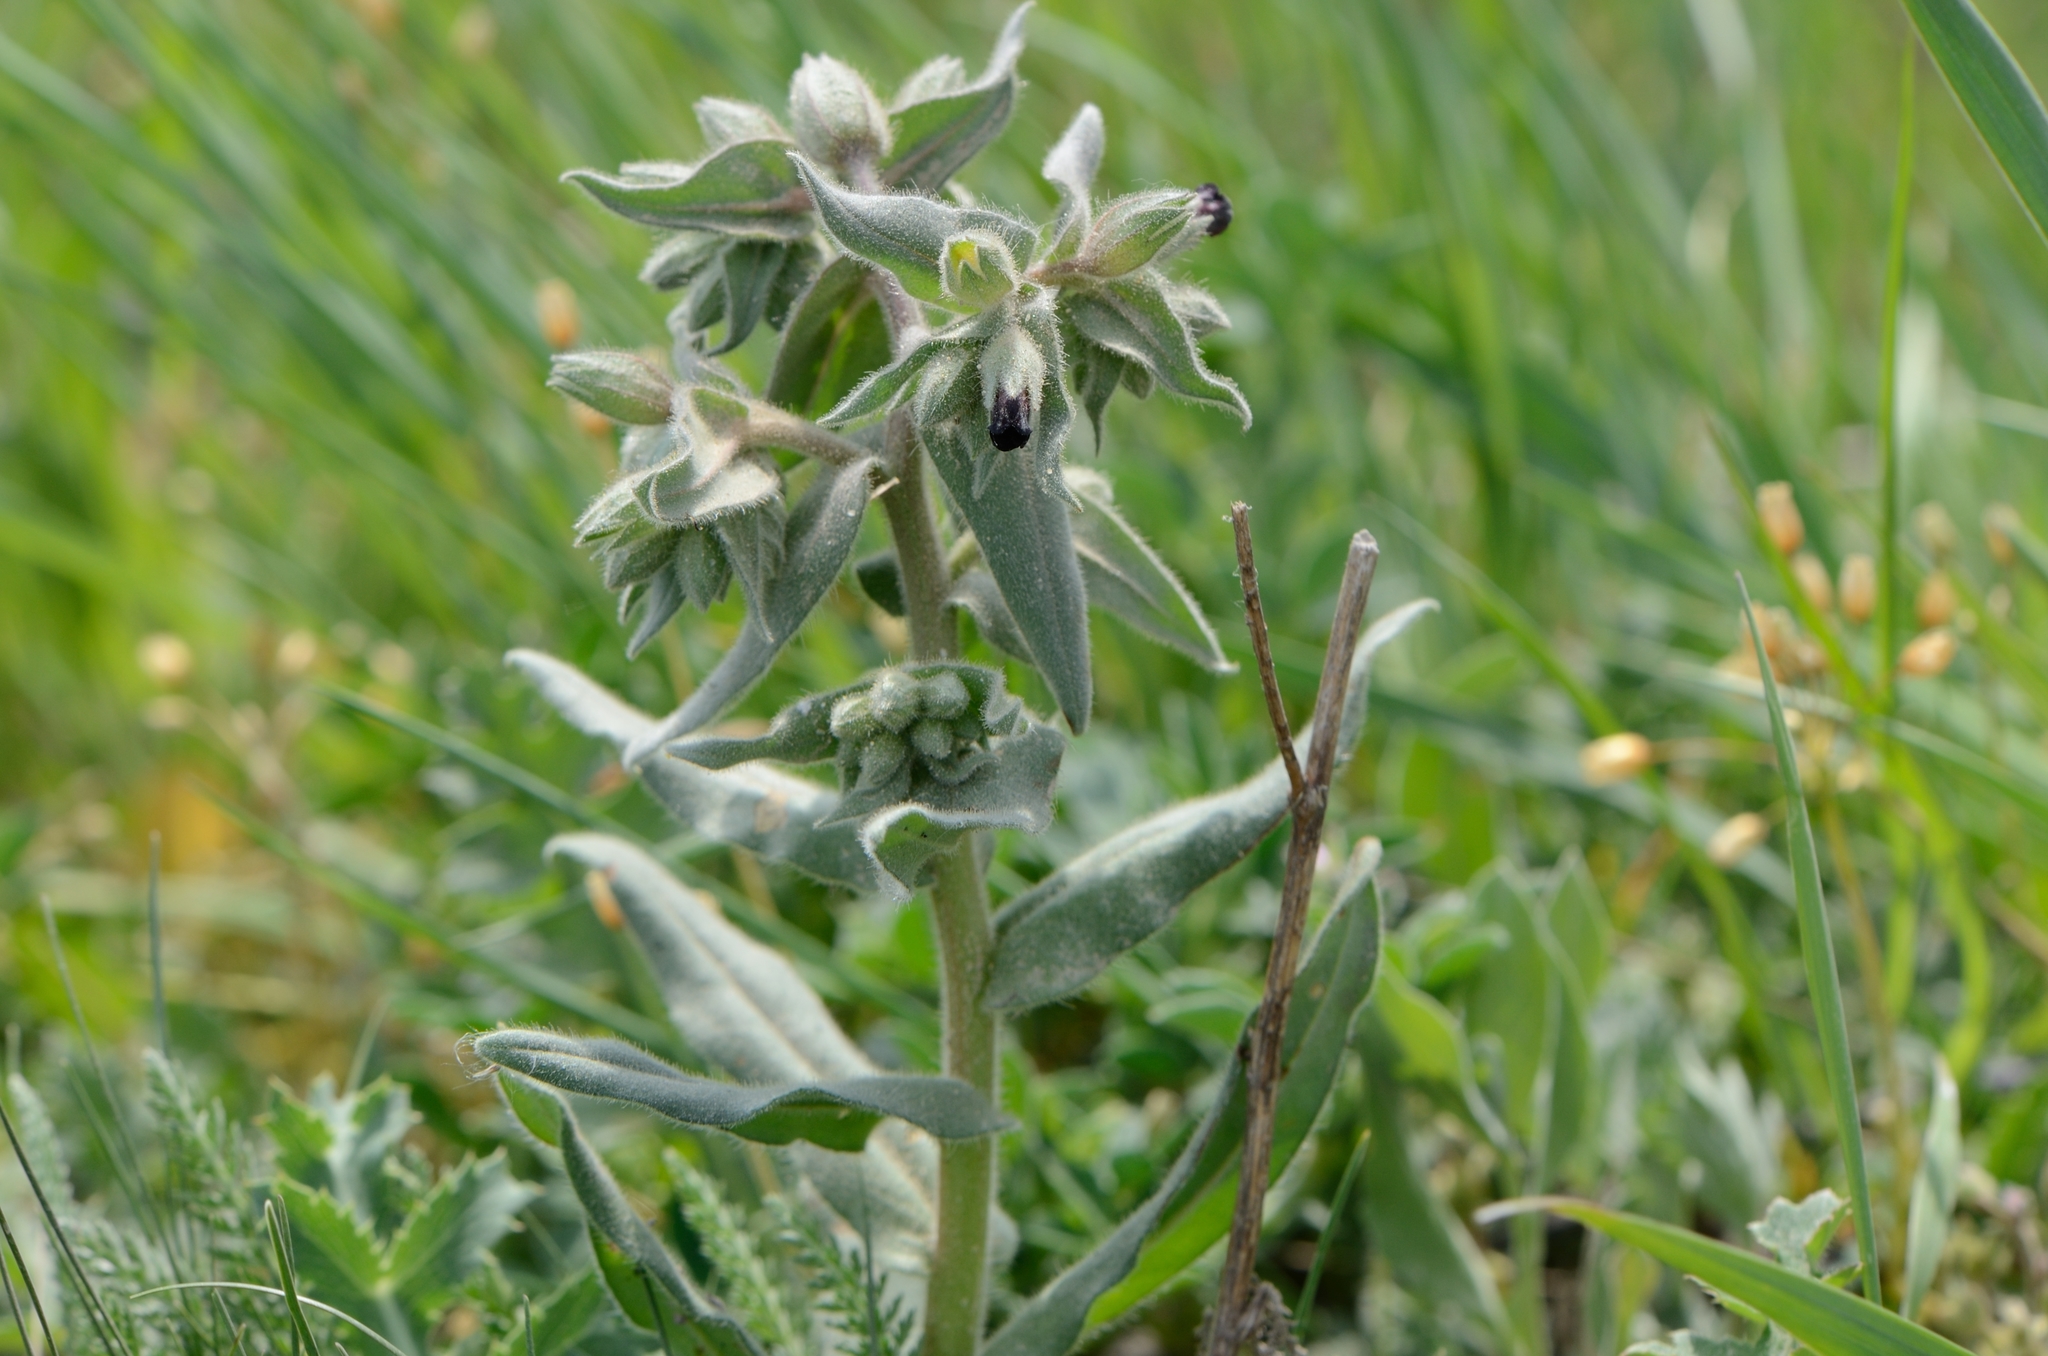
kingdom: Plantae
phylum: Tracheophyta
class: Magnoliopsida
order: Boraginales
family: Boraginaceae
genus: Nonea
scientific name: Nonea pulla
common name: Brown nonea
